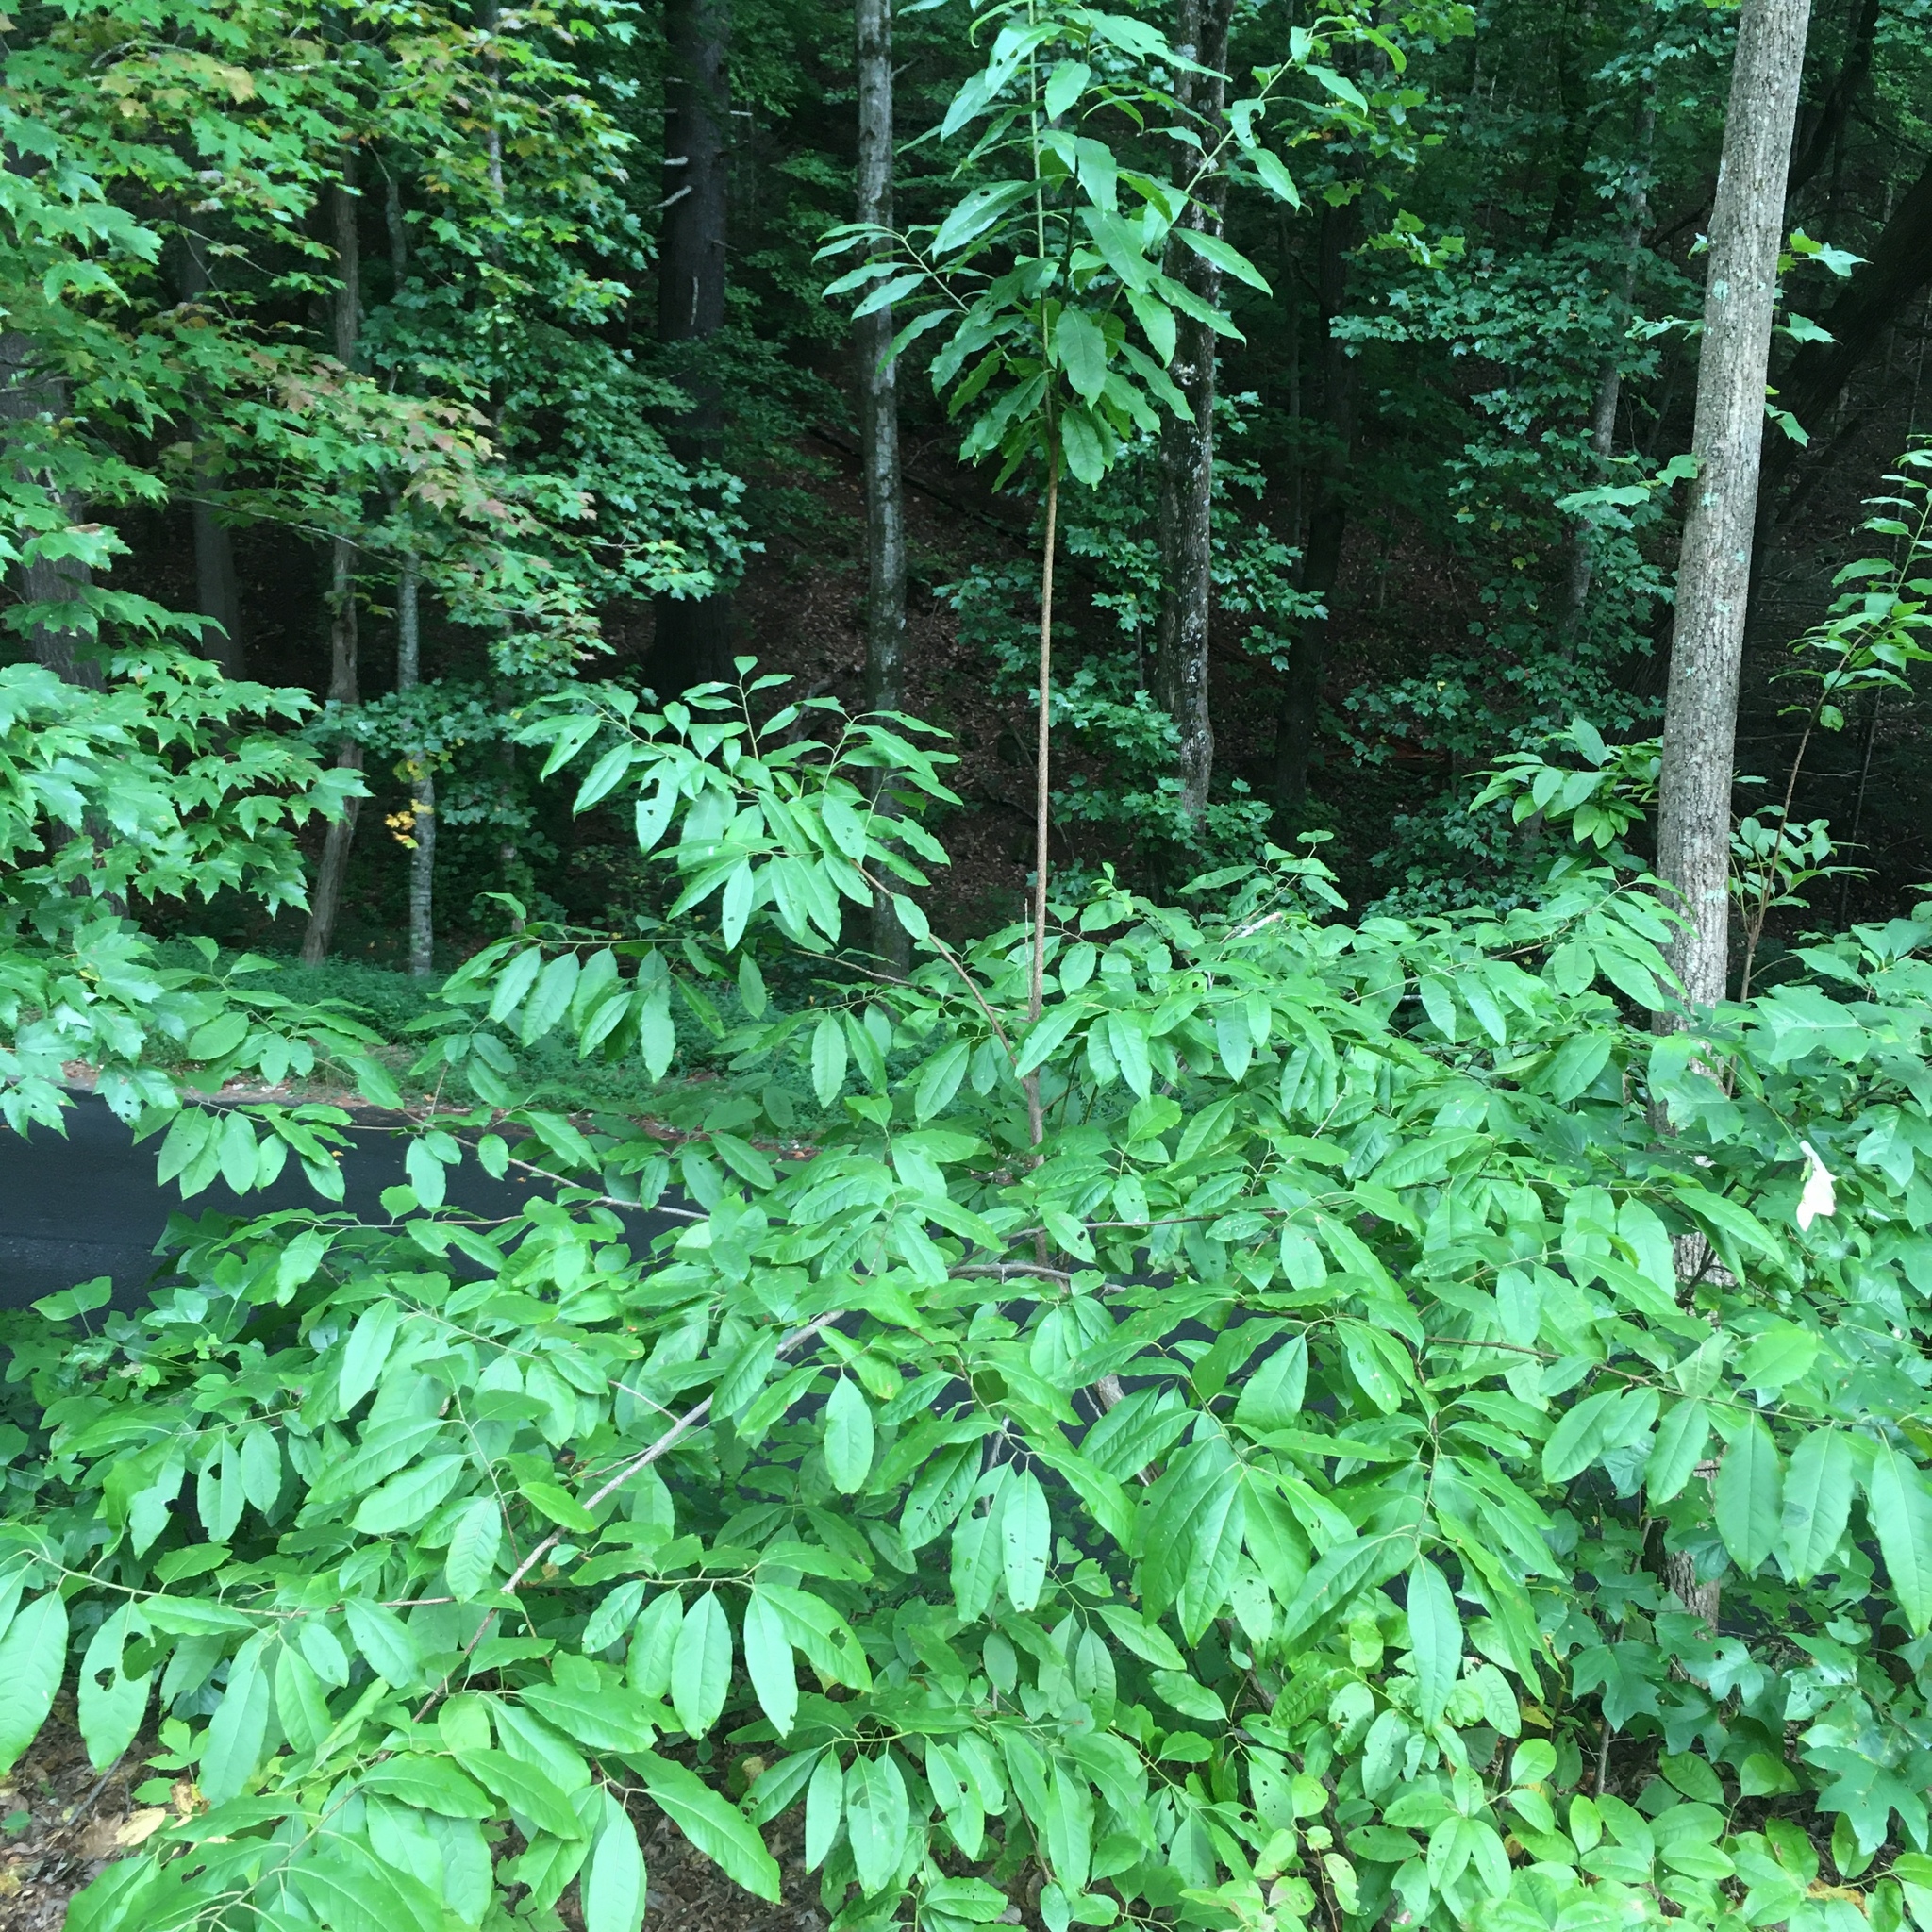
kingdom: Plantae
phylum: Tracheophyta
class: Magnoliopsida
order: Ericales
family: Ericaceae
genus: Oxydendrum
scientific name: Oxydendrum arboreum
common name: Sourwood
